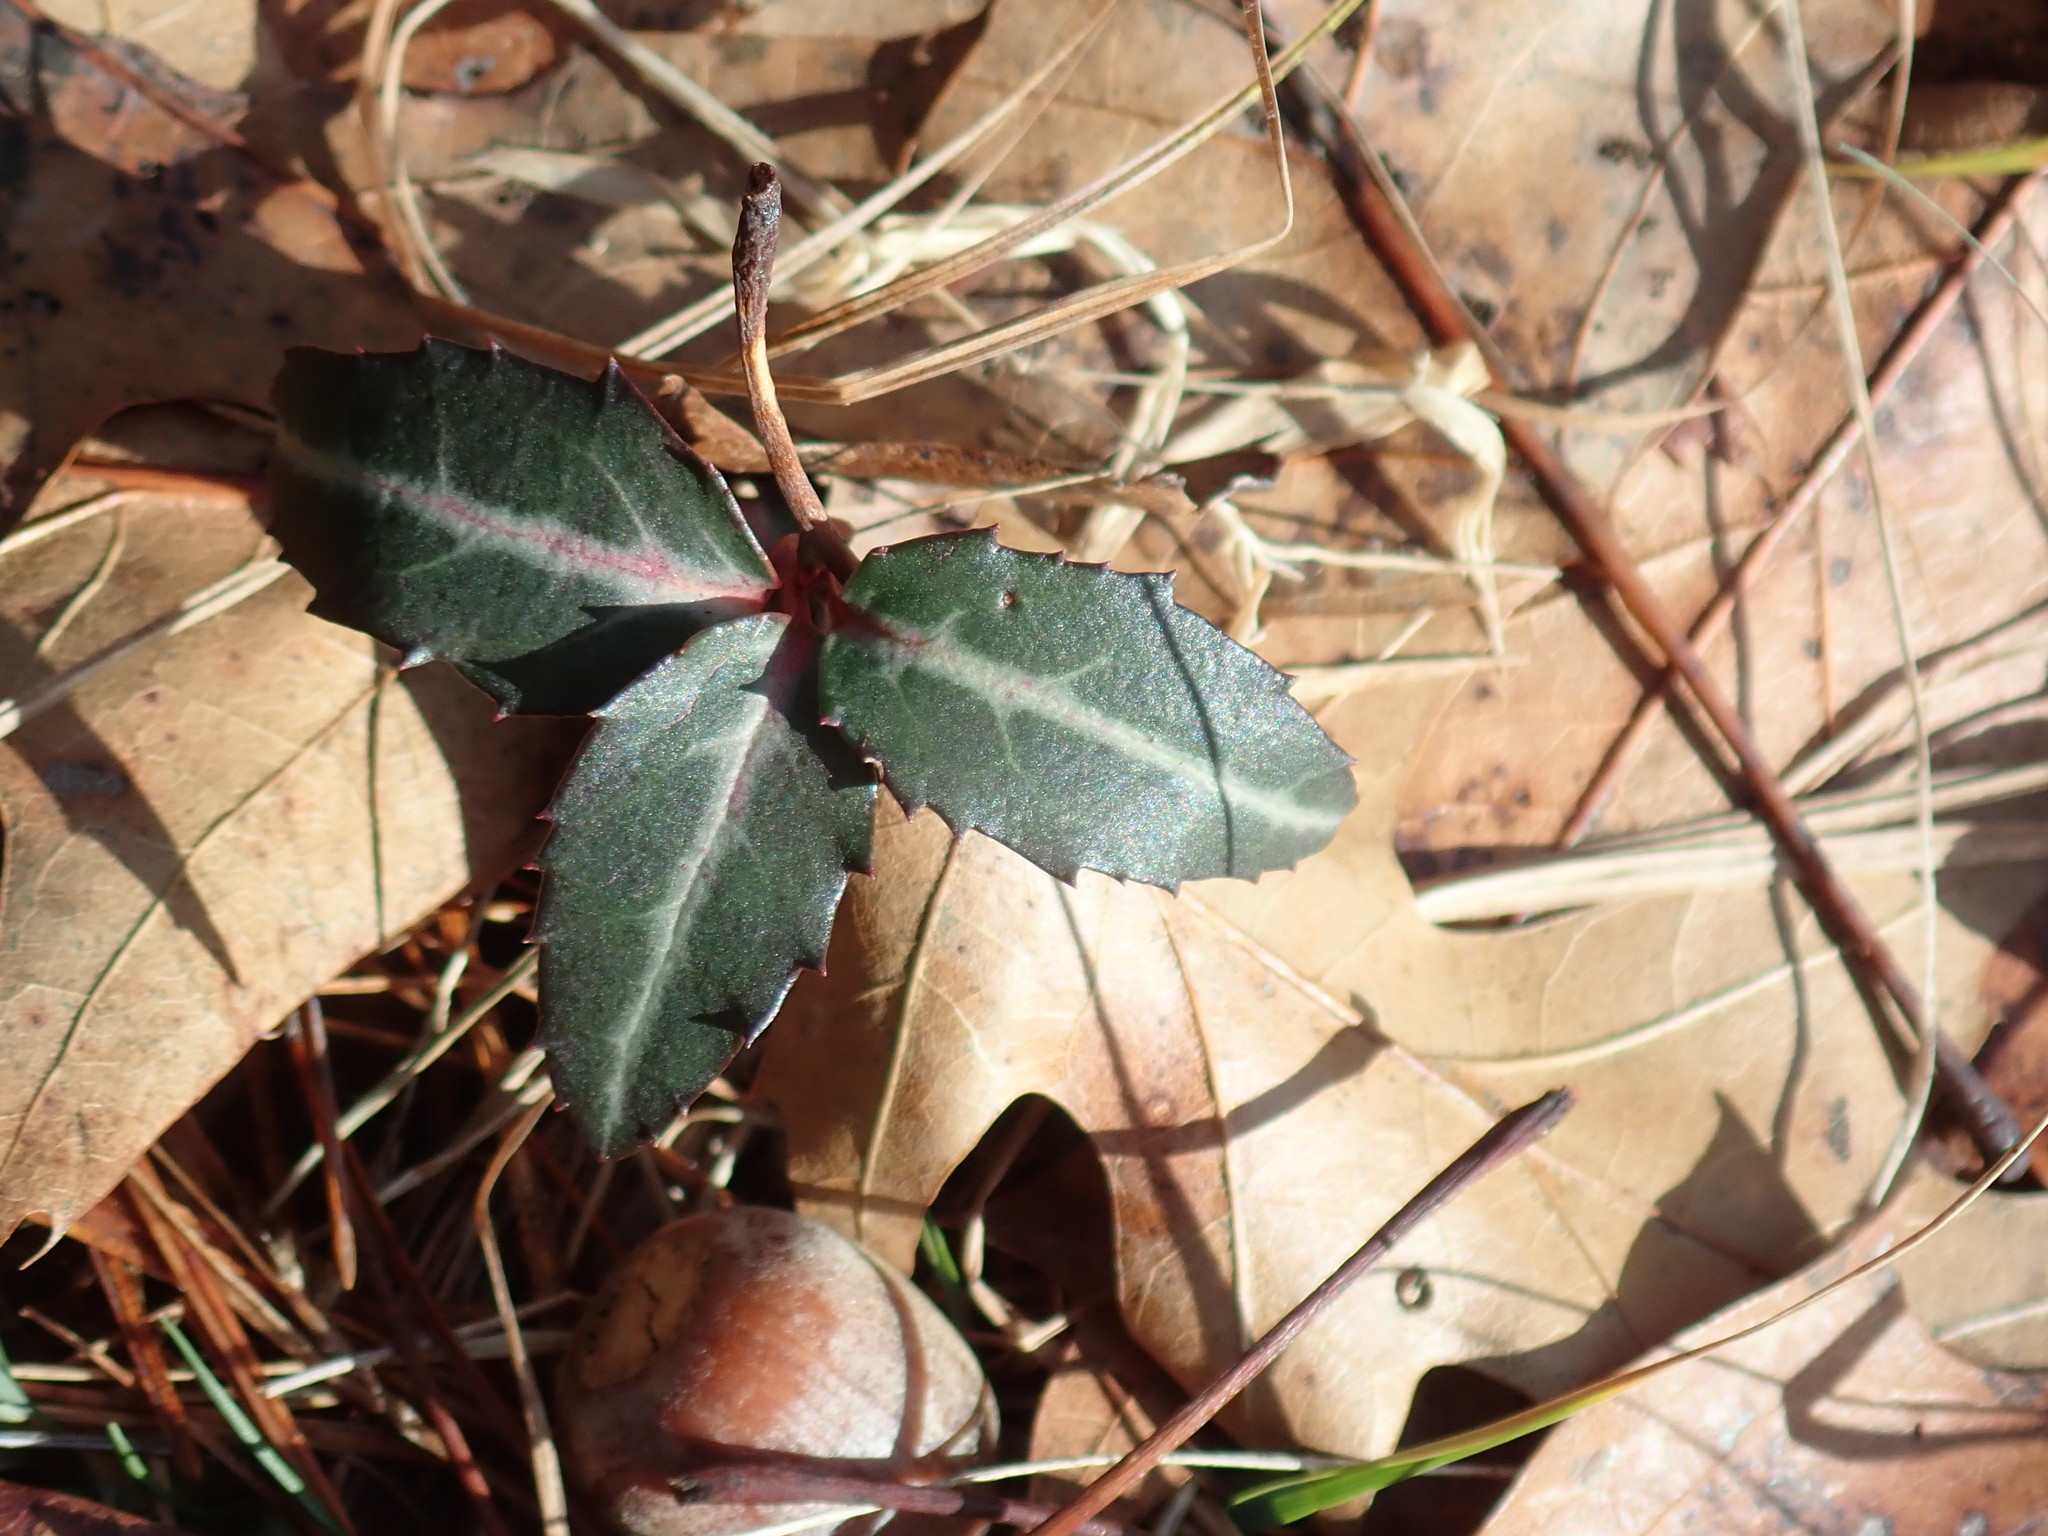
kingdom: Plantae
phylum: Tracheophyta
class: Magnoliopsida
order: Ericales
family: Ericaceae
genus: Chimaphila
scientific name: Chimaphila maculata
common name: Spotted pipsissewa
